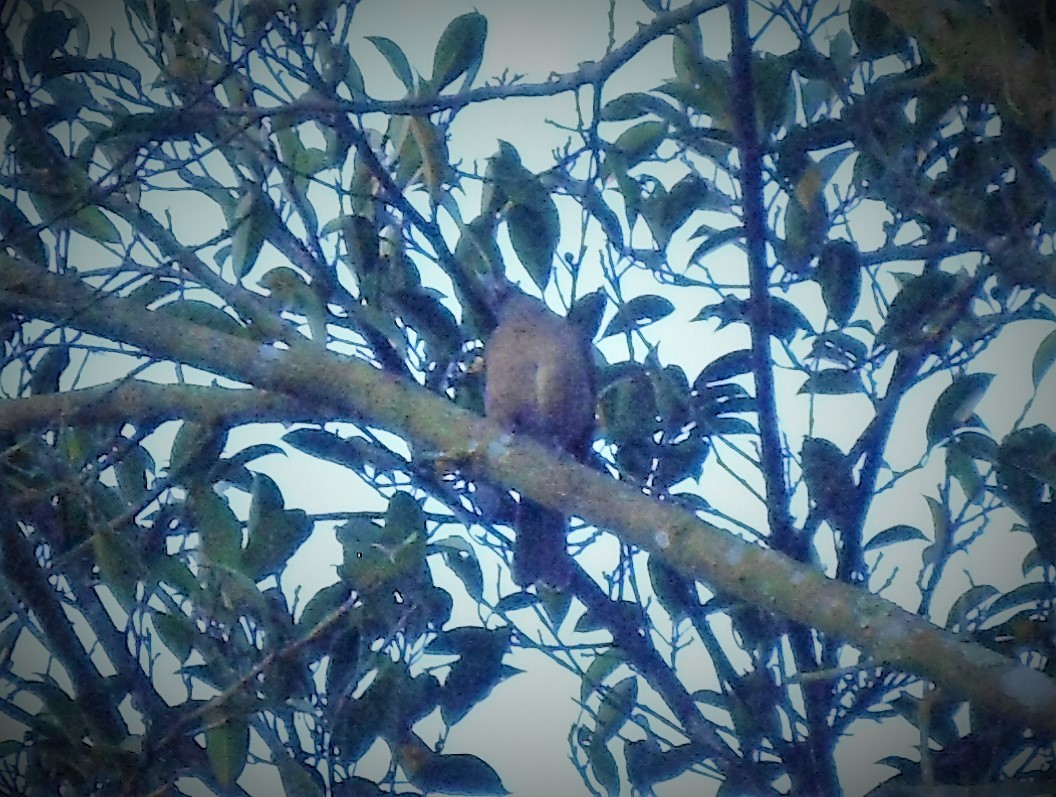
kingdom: Animalia
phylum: Chordata
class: Aves
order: Passeriformes
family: Turdidae
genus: Turdus
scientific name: Turdus grayi
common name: Clay-colored thrush
